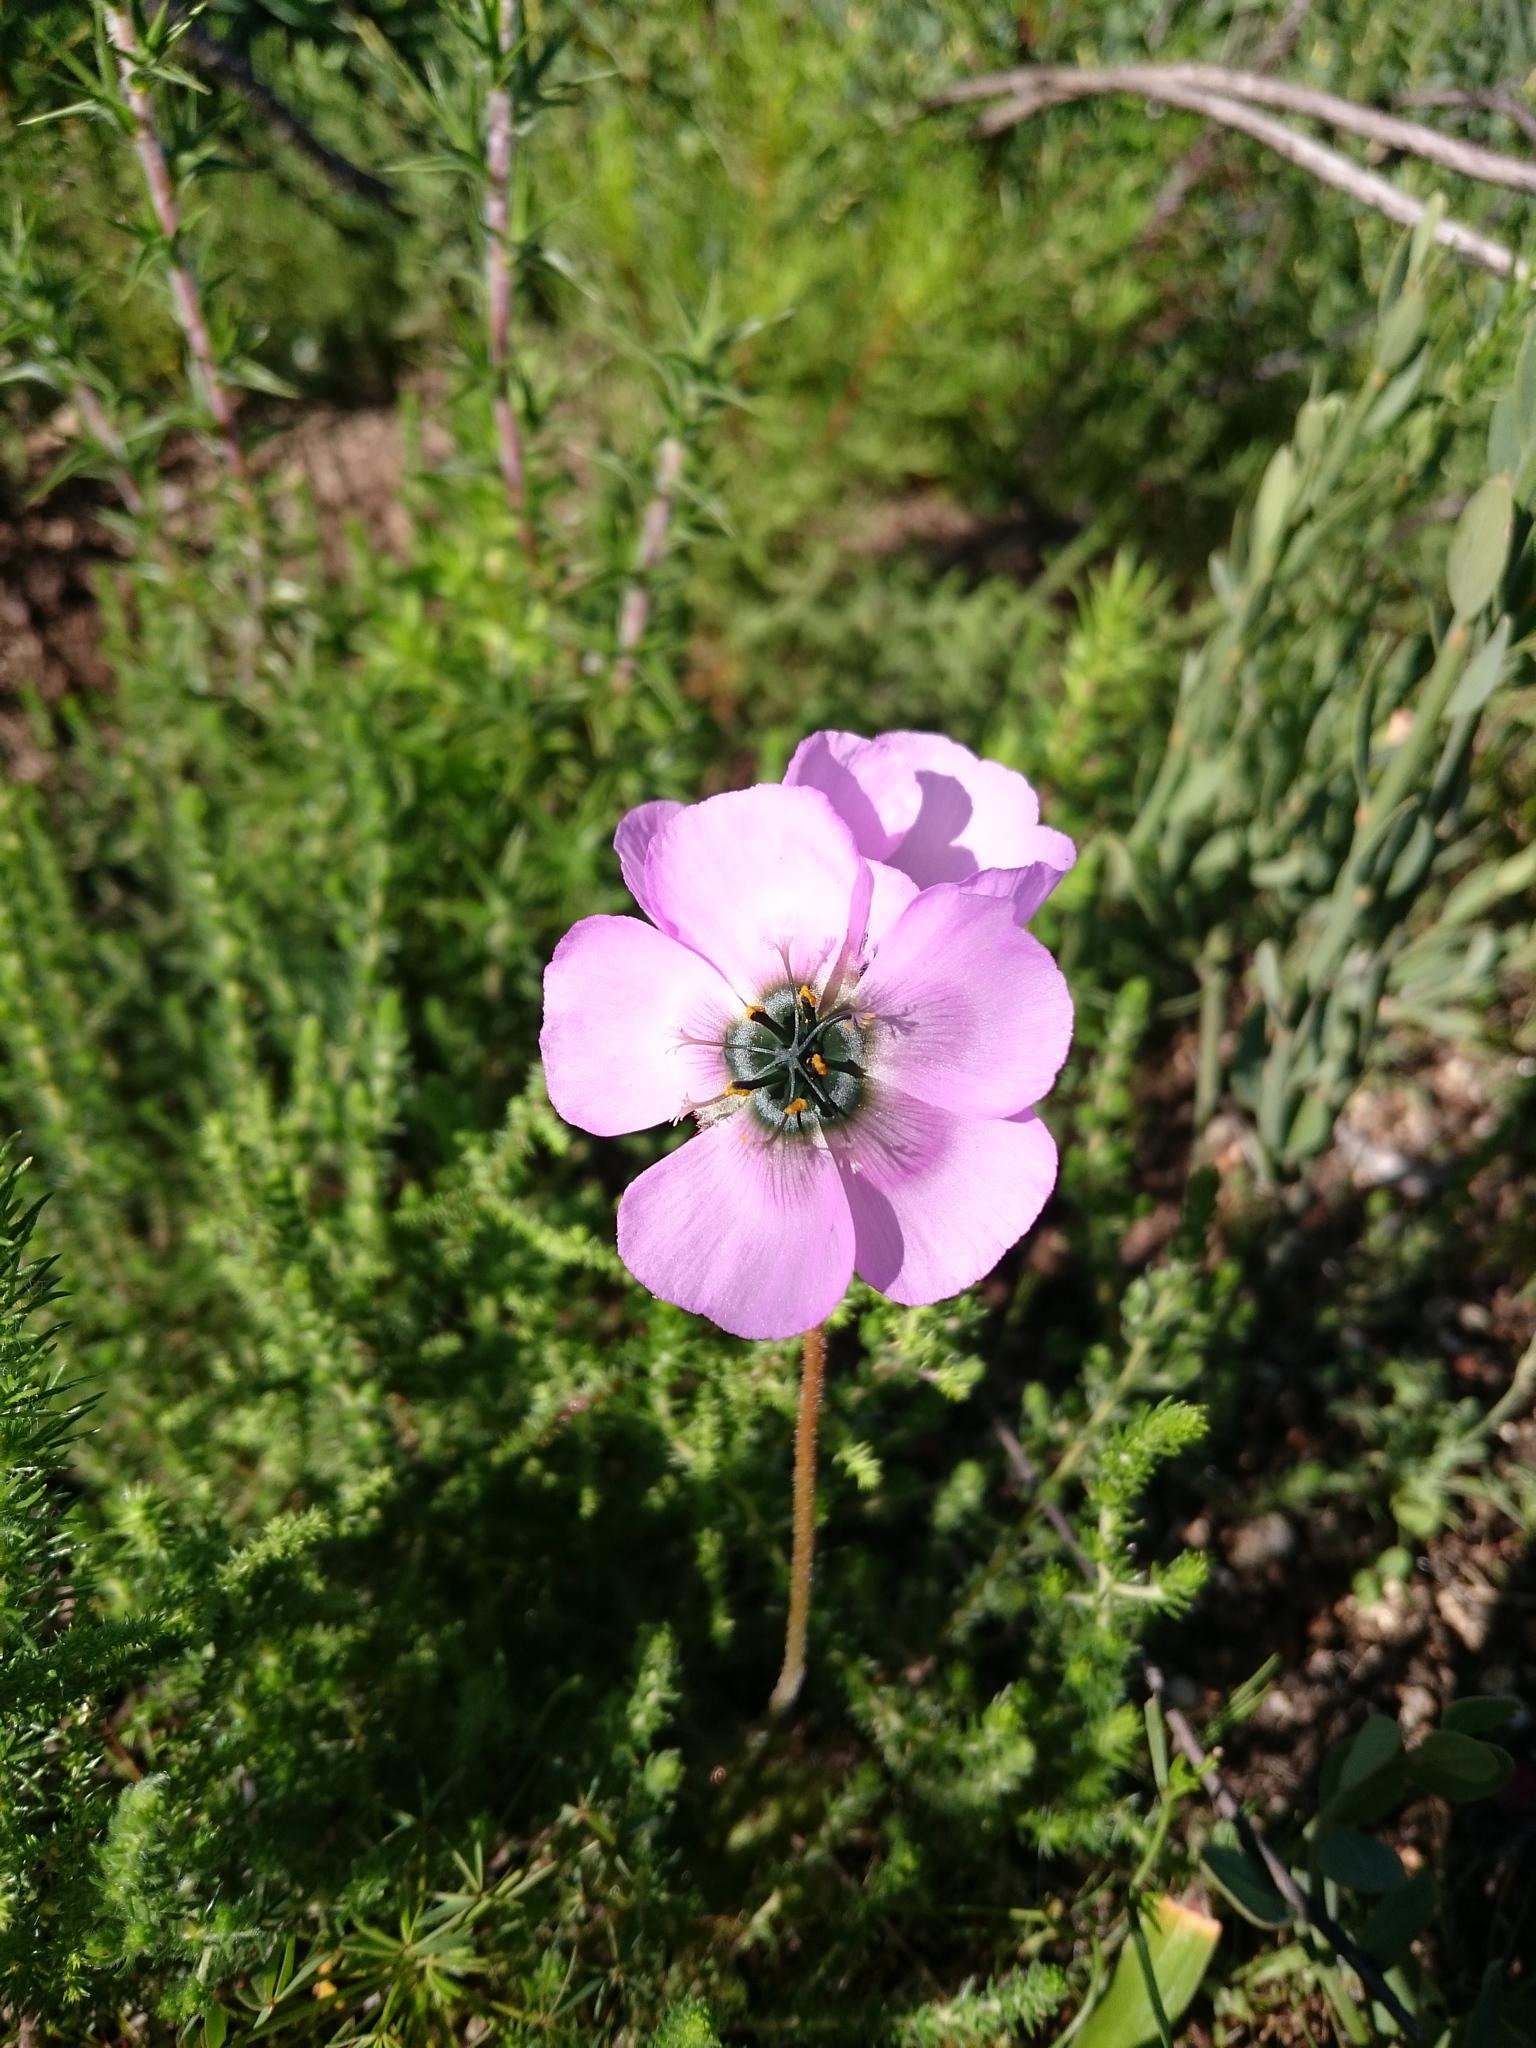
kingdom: Plantae
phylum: Tracheophyta
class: Magnoliopsida
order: Caryophyllales
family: Droseraceae
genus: Drosera
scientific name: Drosera pauciflora
